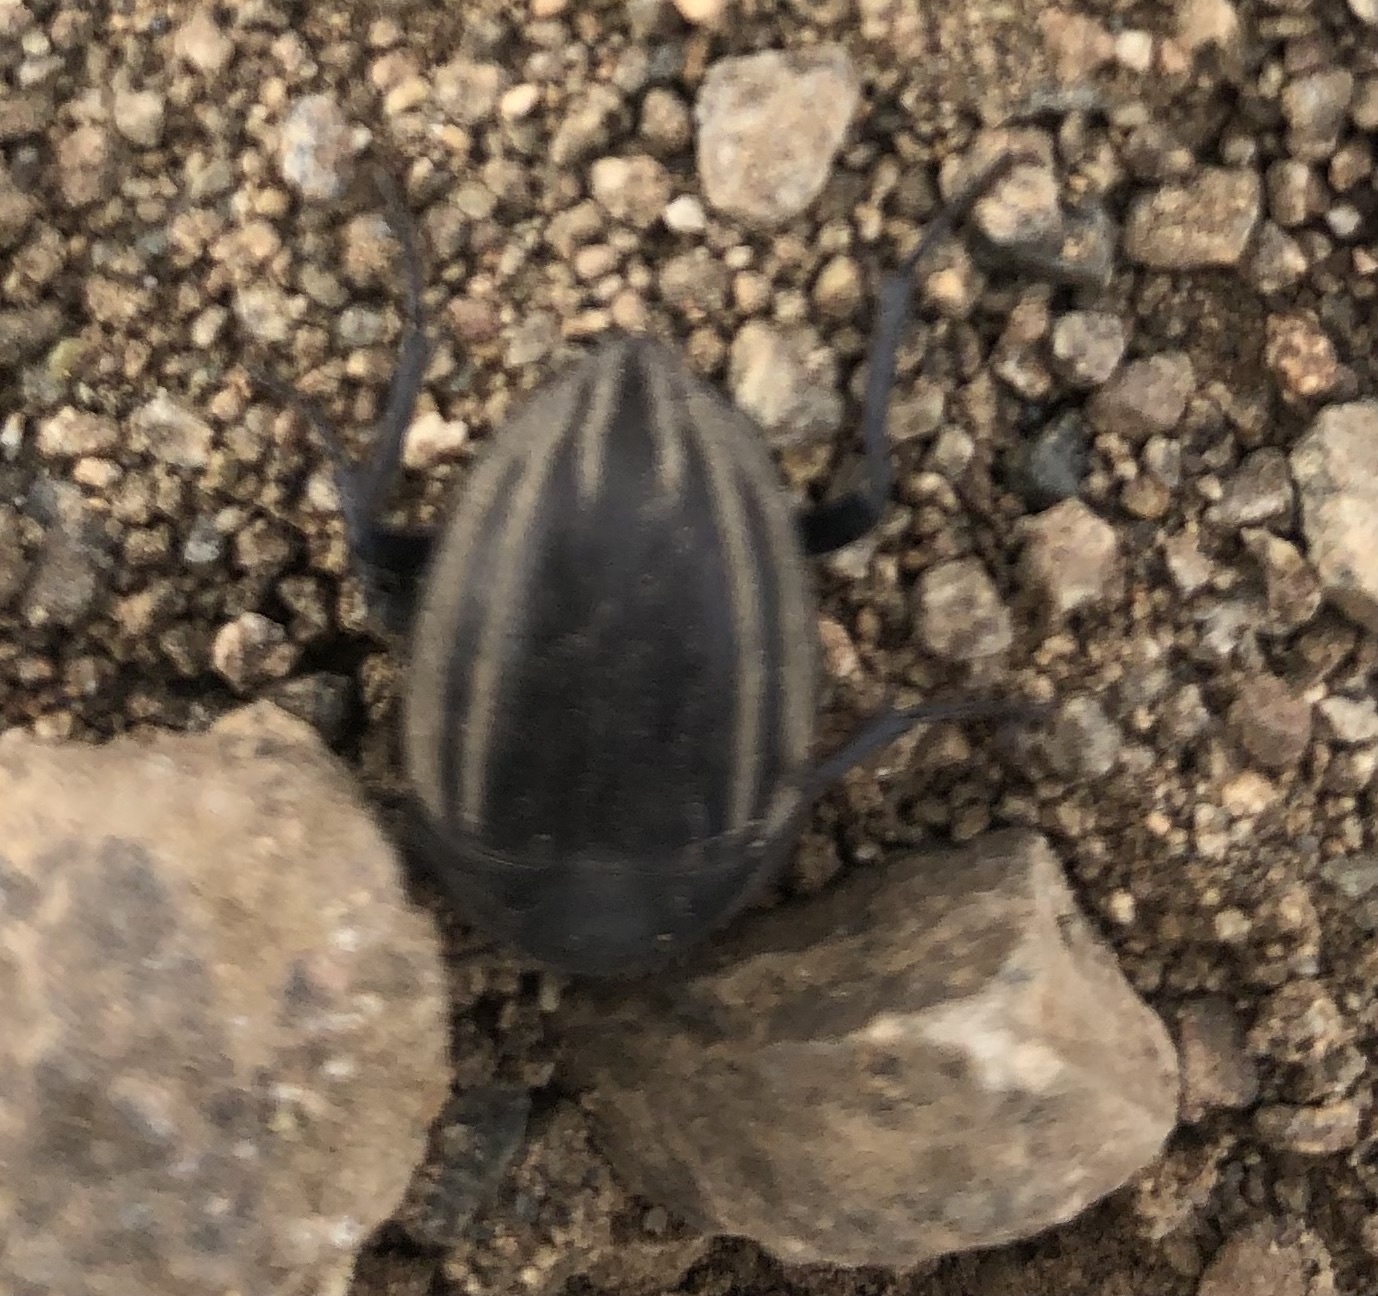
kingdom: Animalia
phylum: Arthropoda
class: Insecta
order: Coleoptera
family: Tenebrionidae
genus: Praocis
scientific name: Praocis spinolai
